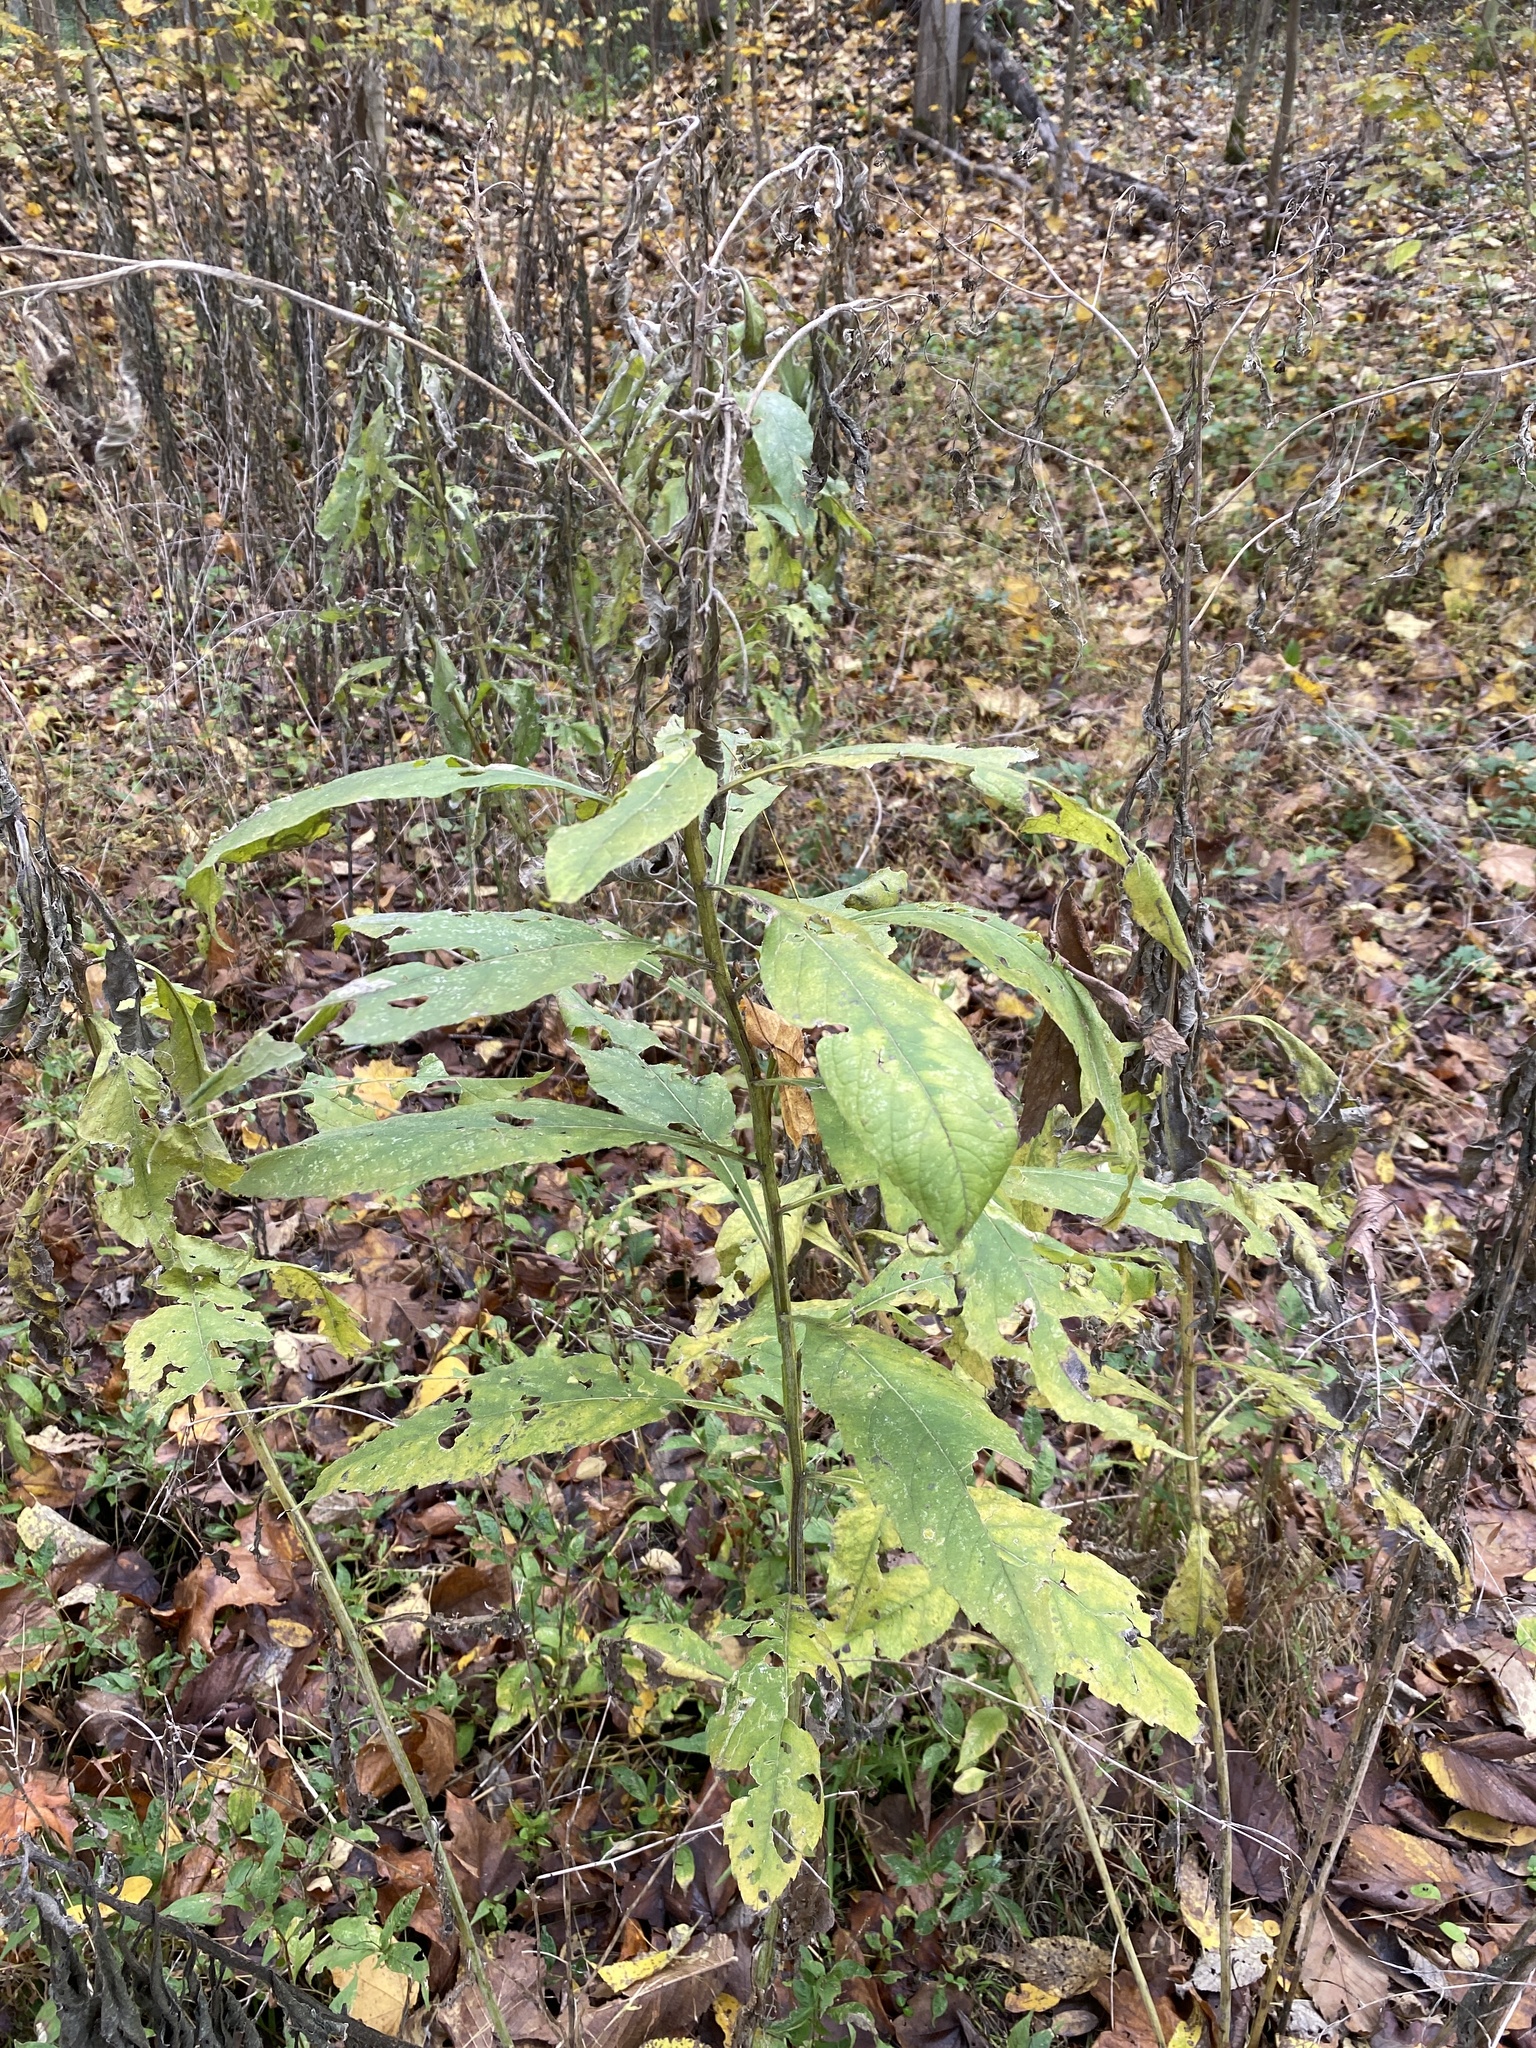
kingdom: Plantae
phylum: Tracheophyta
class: Magnoliopsida
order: Asterales
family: Asteraceae
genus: Verbesina
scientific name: Verbesina alternifolia
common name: Wingstem
